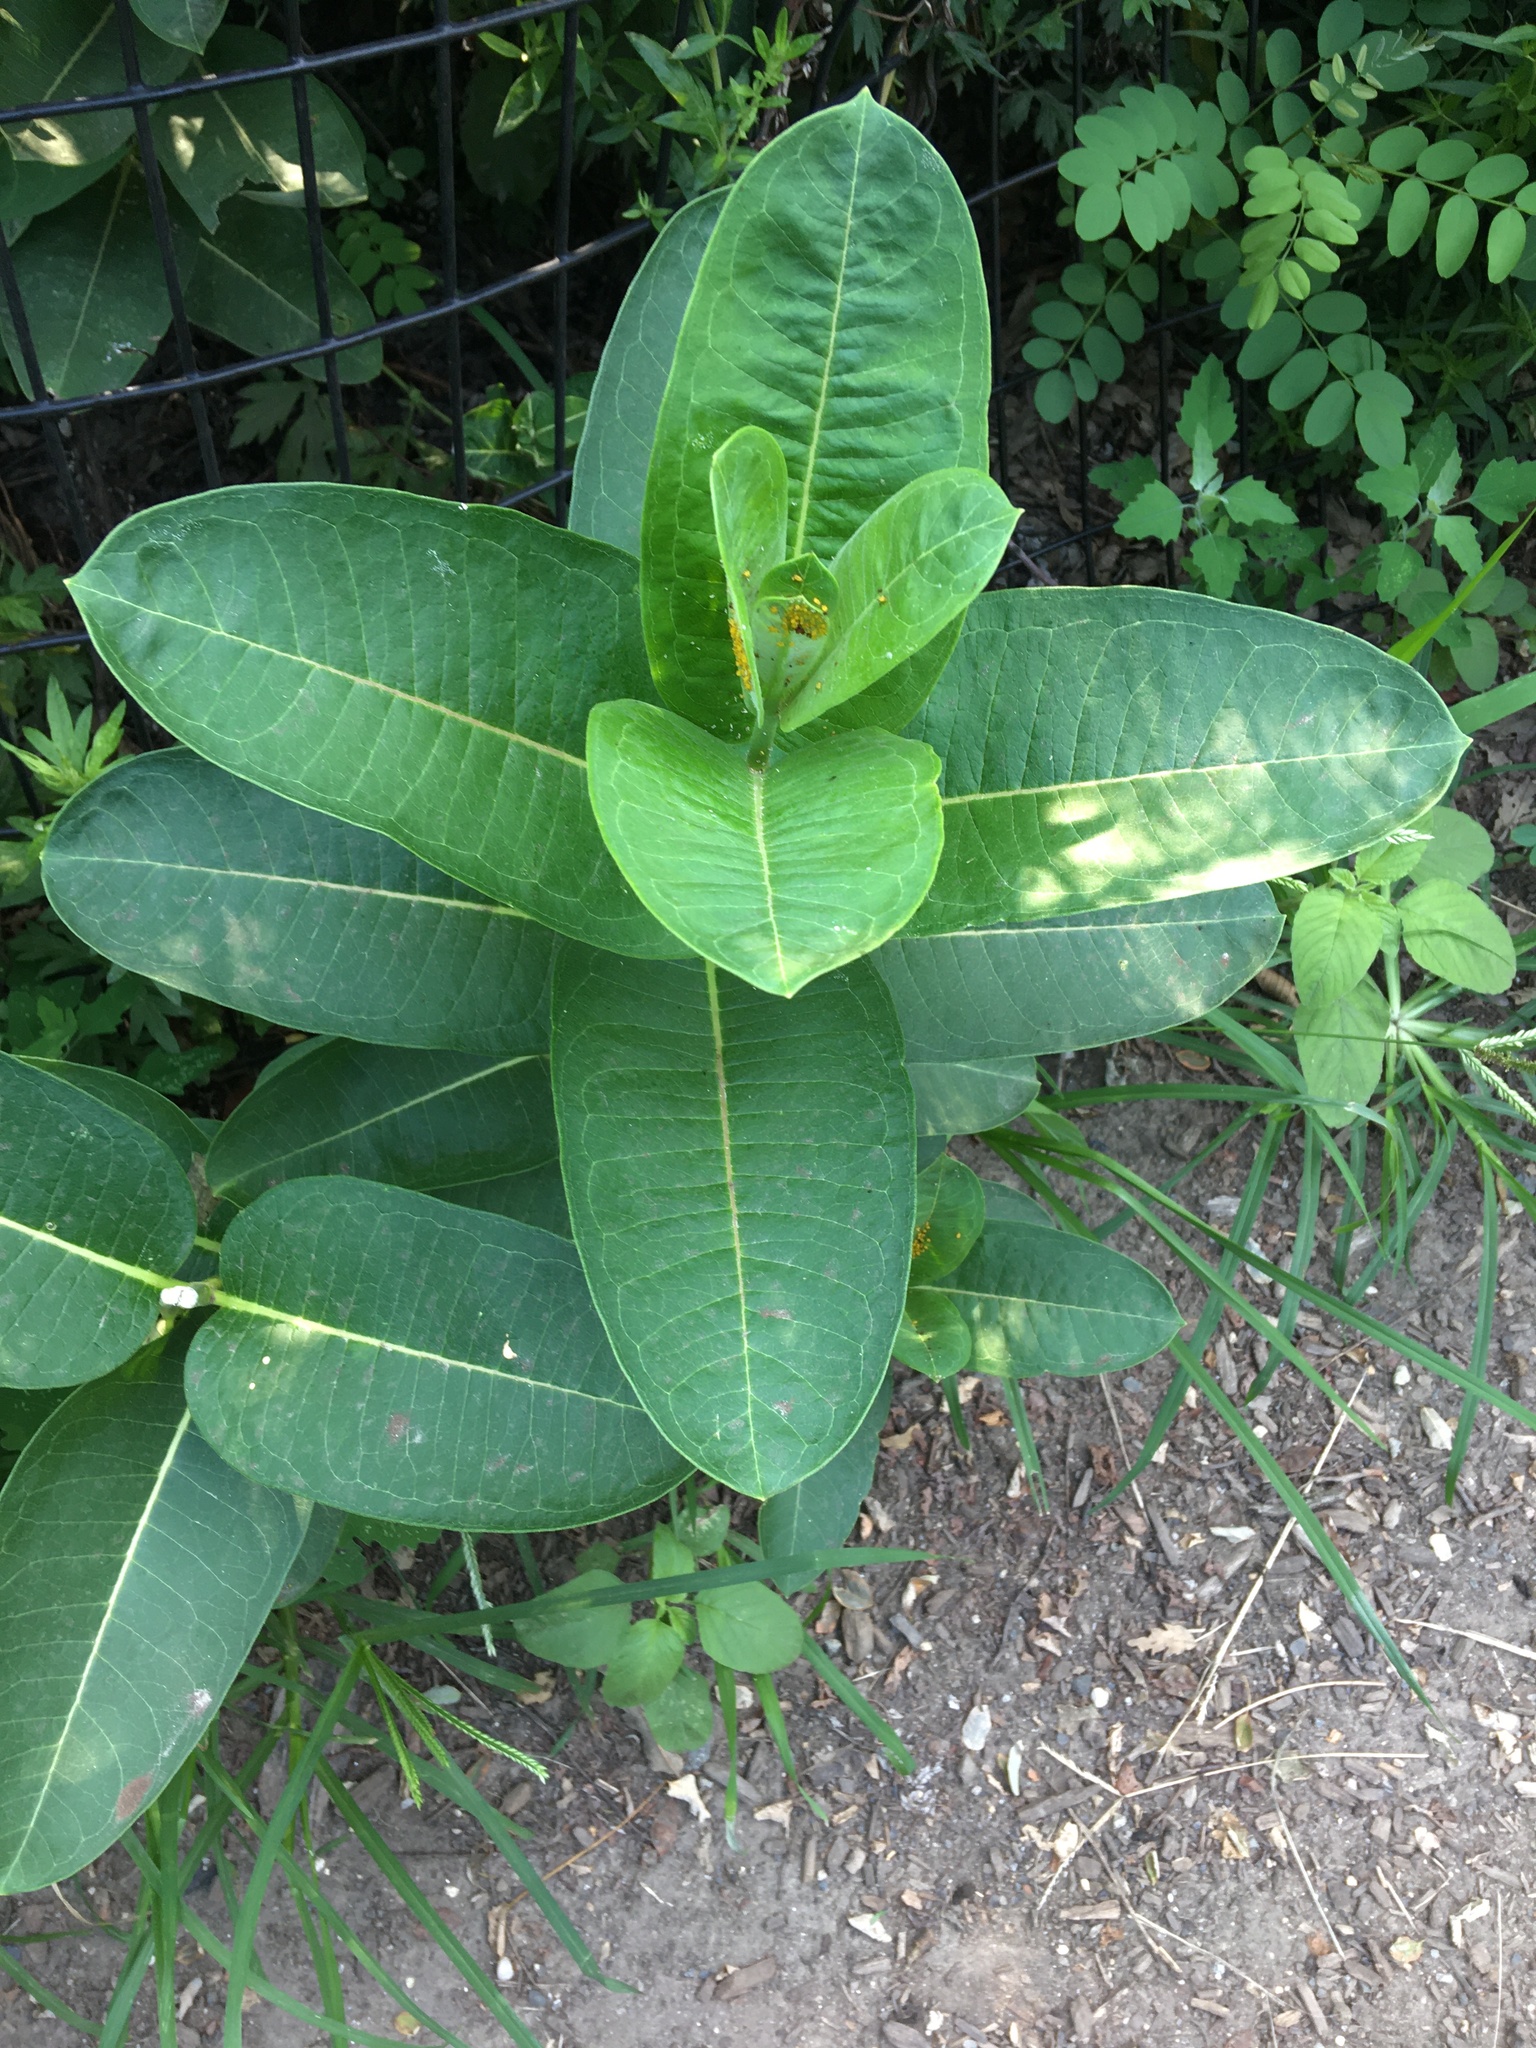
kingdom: Plantae
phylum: Tracheophyta
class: Magnoliopsida
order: Gentianales
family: Apocynaceae
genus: Asclepias
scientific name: Asclepias syriaca
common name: Common milkweed
